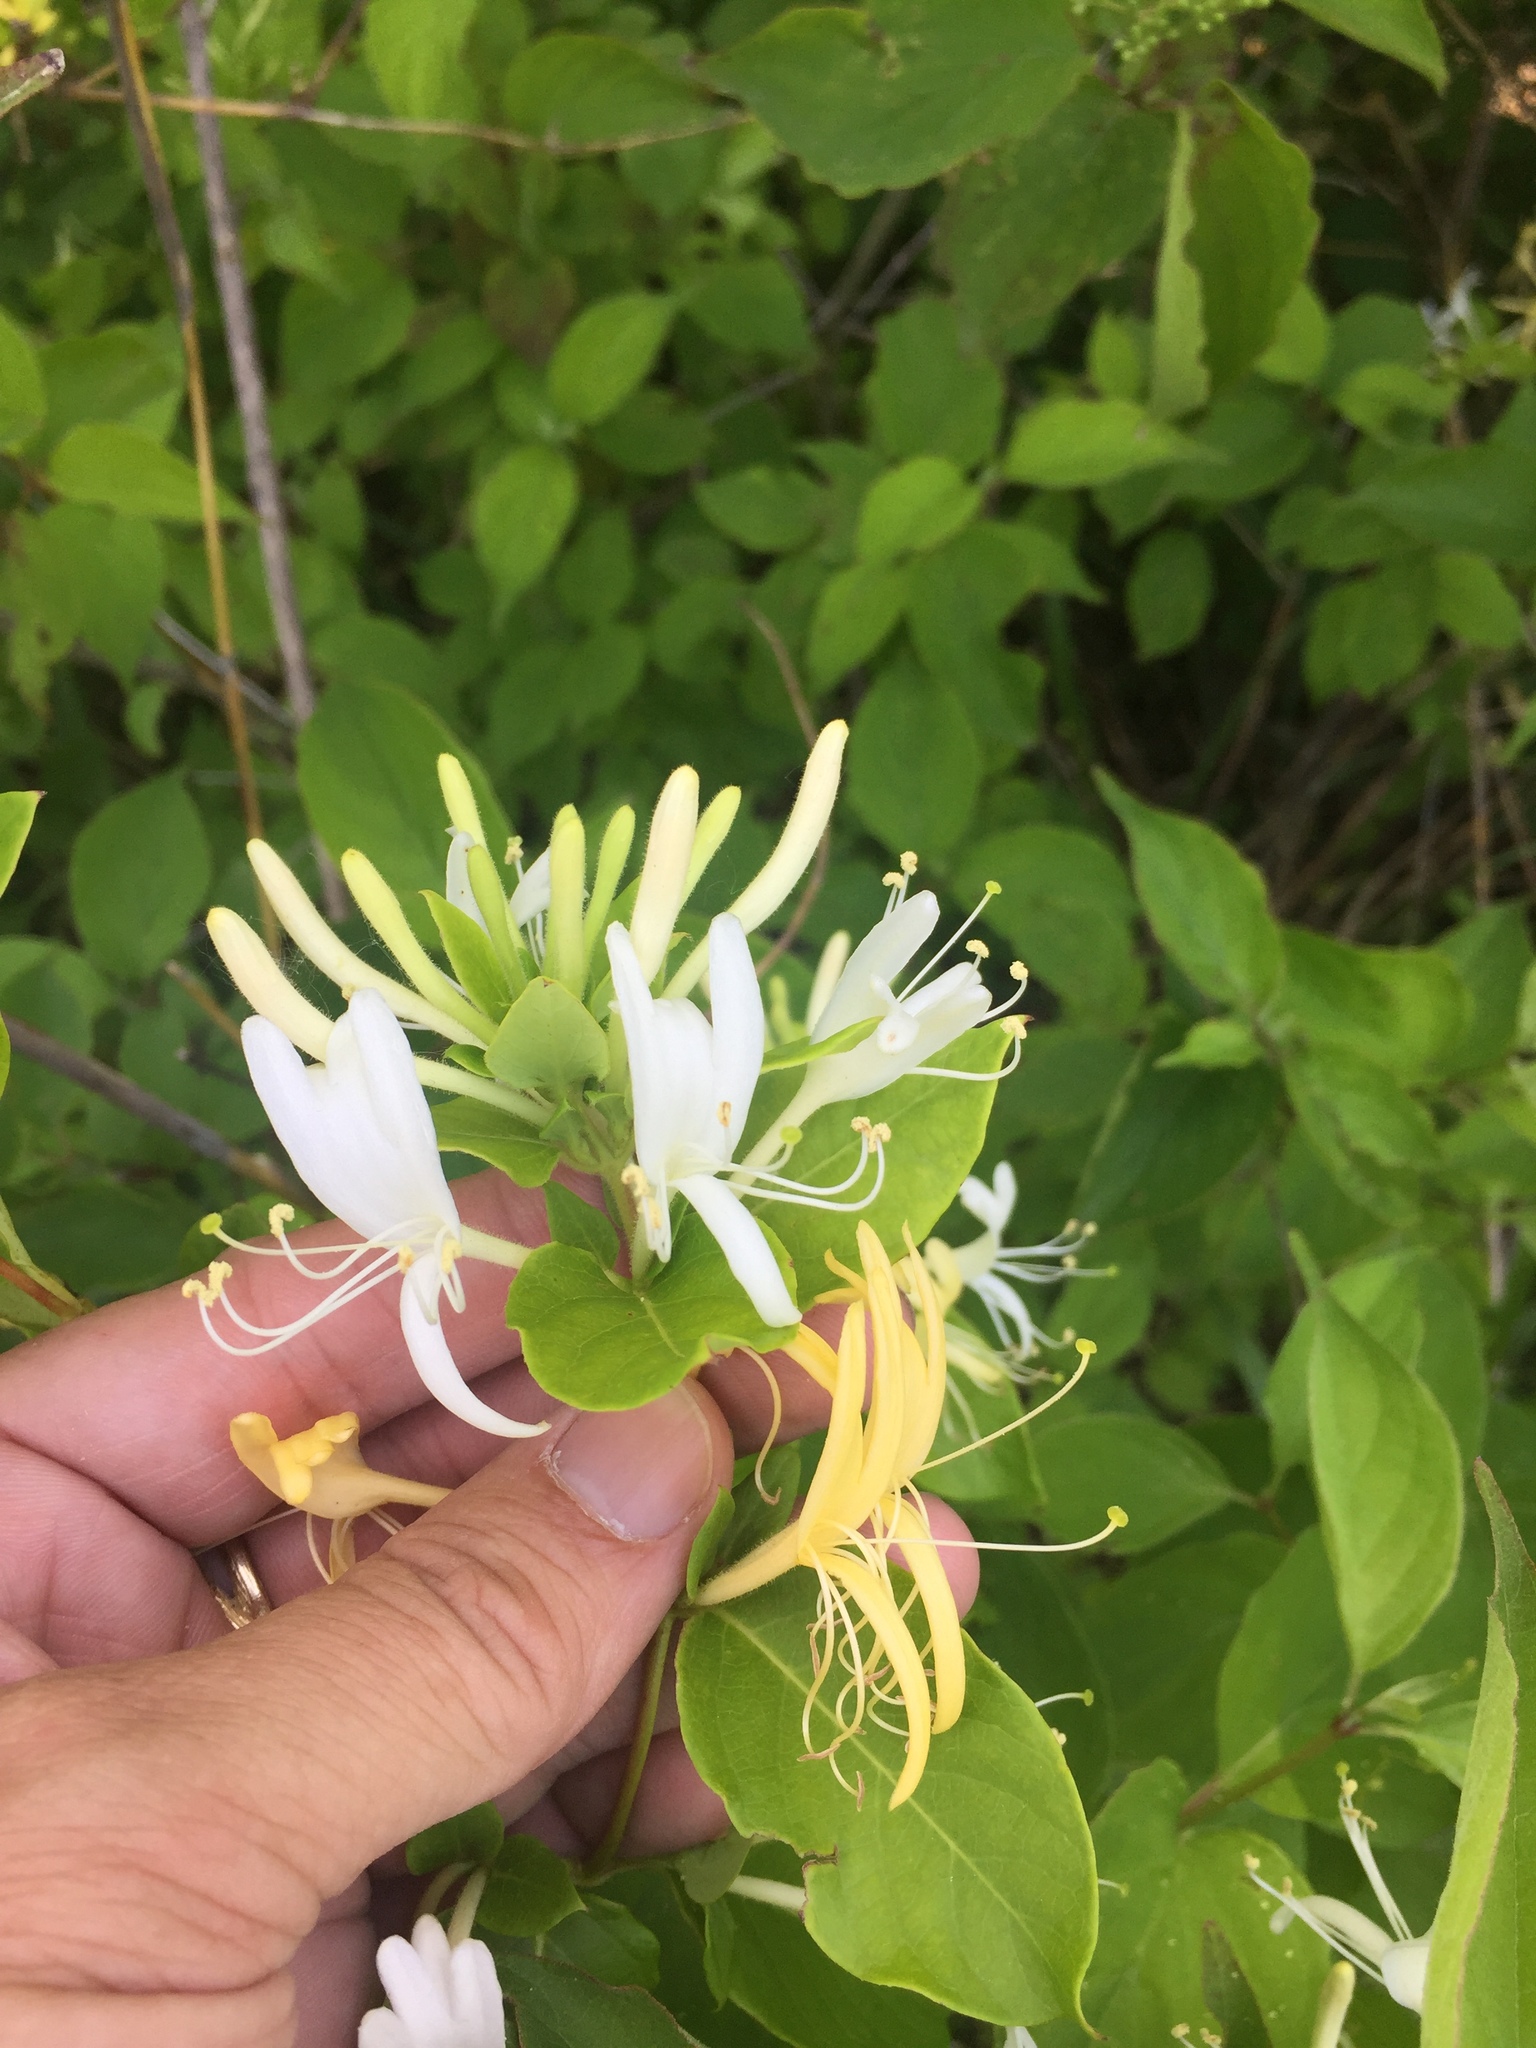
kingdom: Plantae
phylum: Tracheophyta
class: Magnoliopsida
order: Dipsacales
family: Caprifoliaceae
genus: Lonicera
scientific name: Lonicera japonica
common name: Japanese honeysuckle
